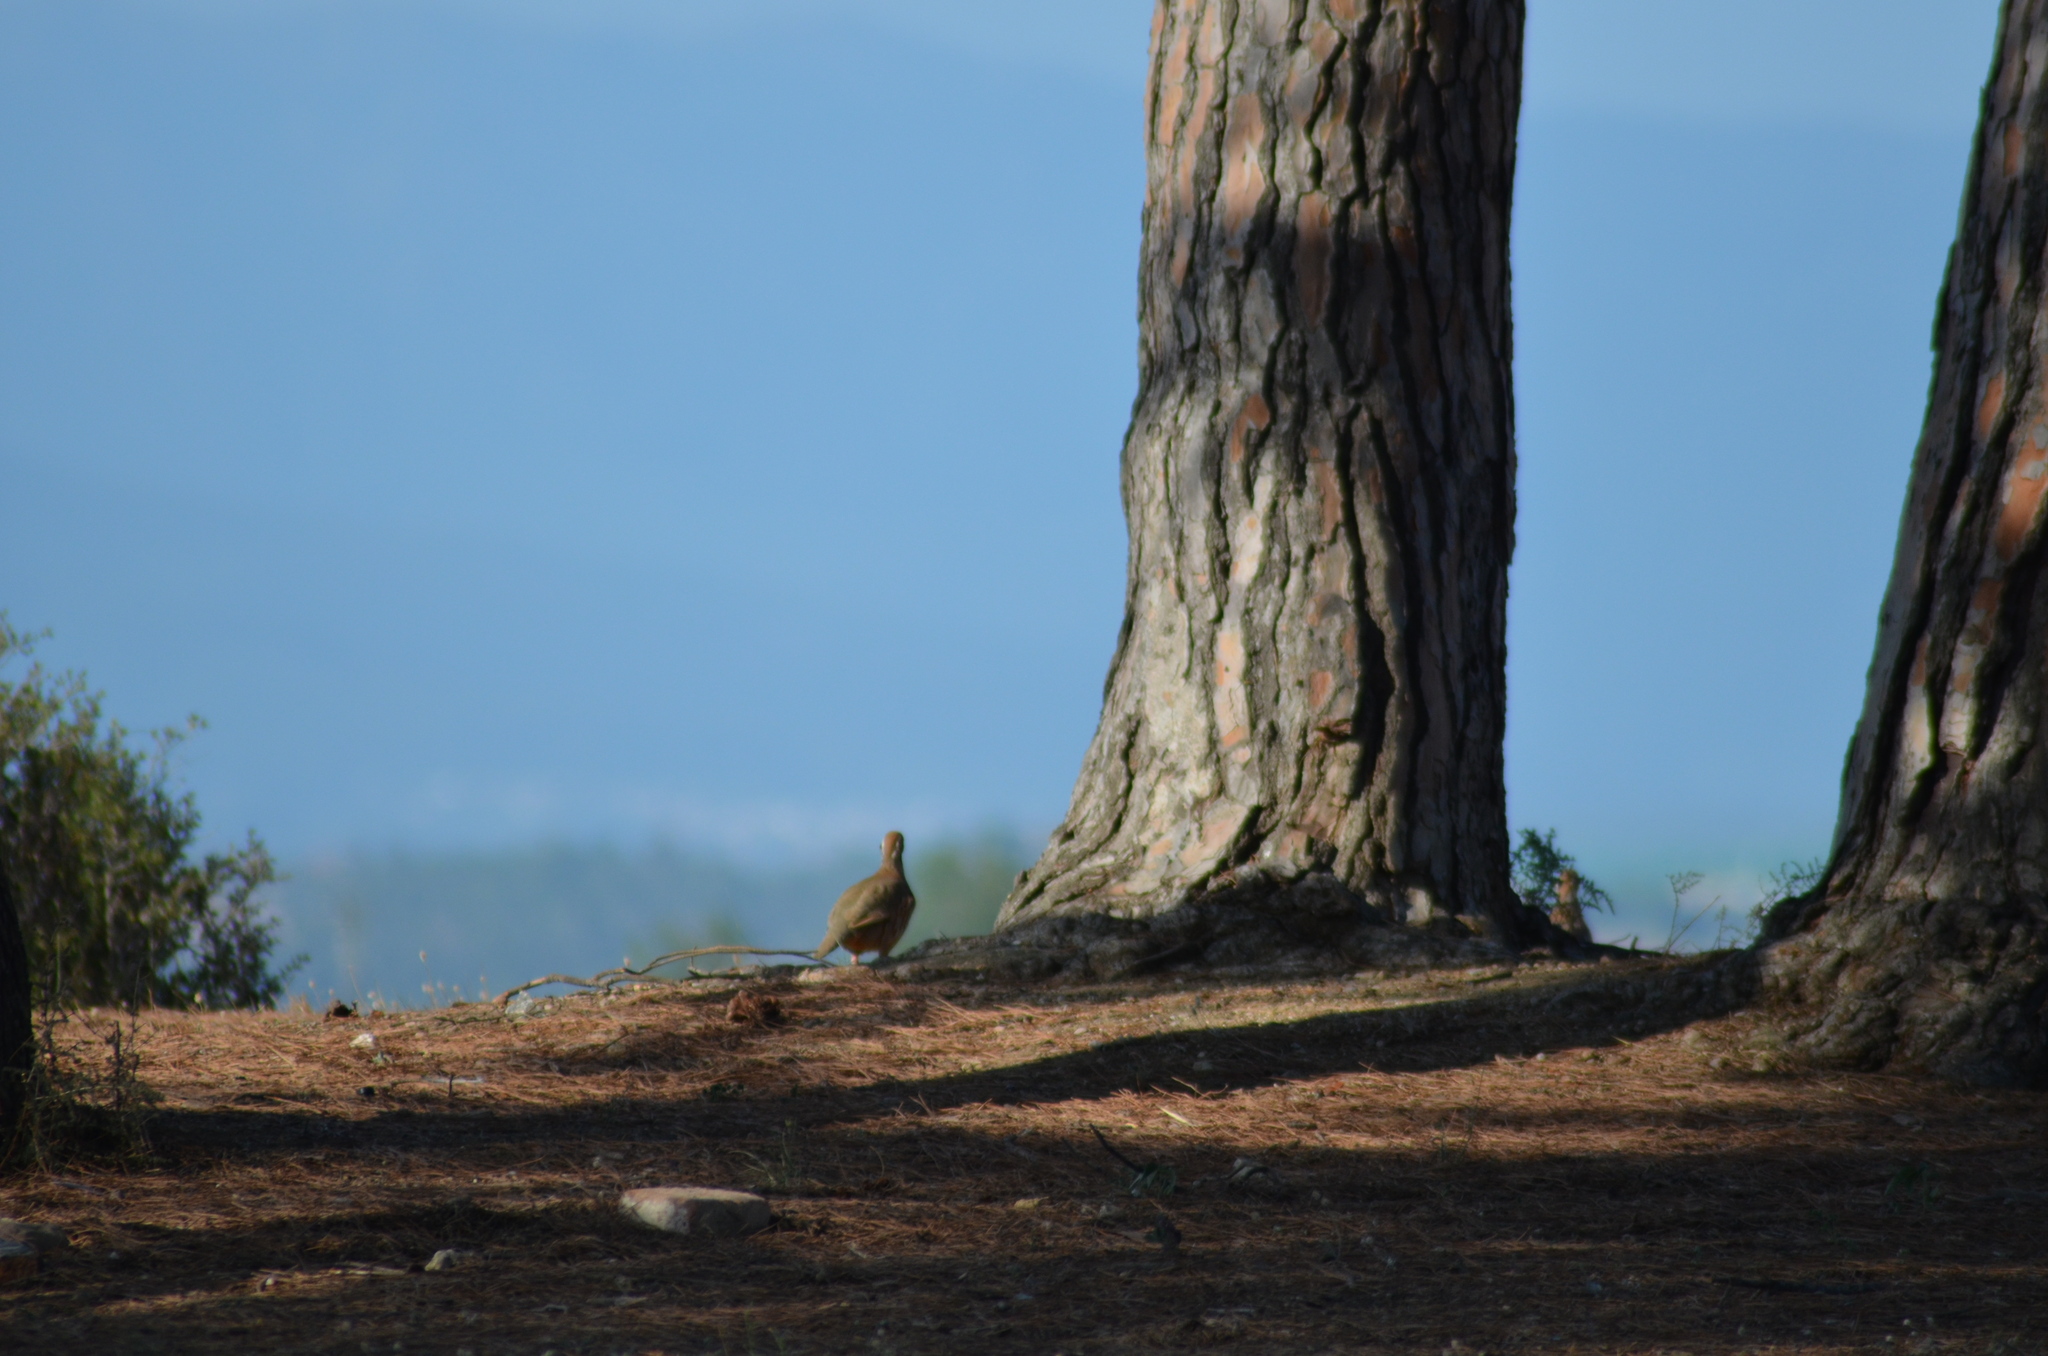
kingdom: Animalia
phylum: Chordata
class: Aves
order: Galliformes
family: Phasianidae
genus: Alectoris
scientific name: Alectoris rufa
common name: Red-legged partridge
